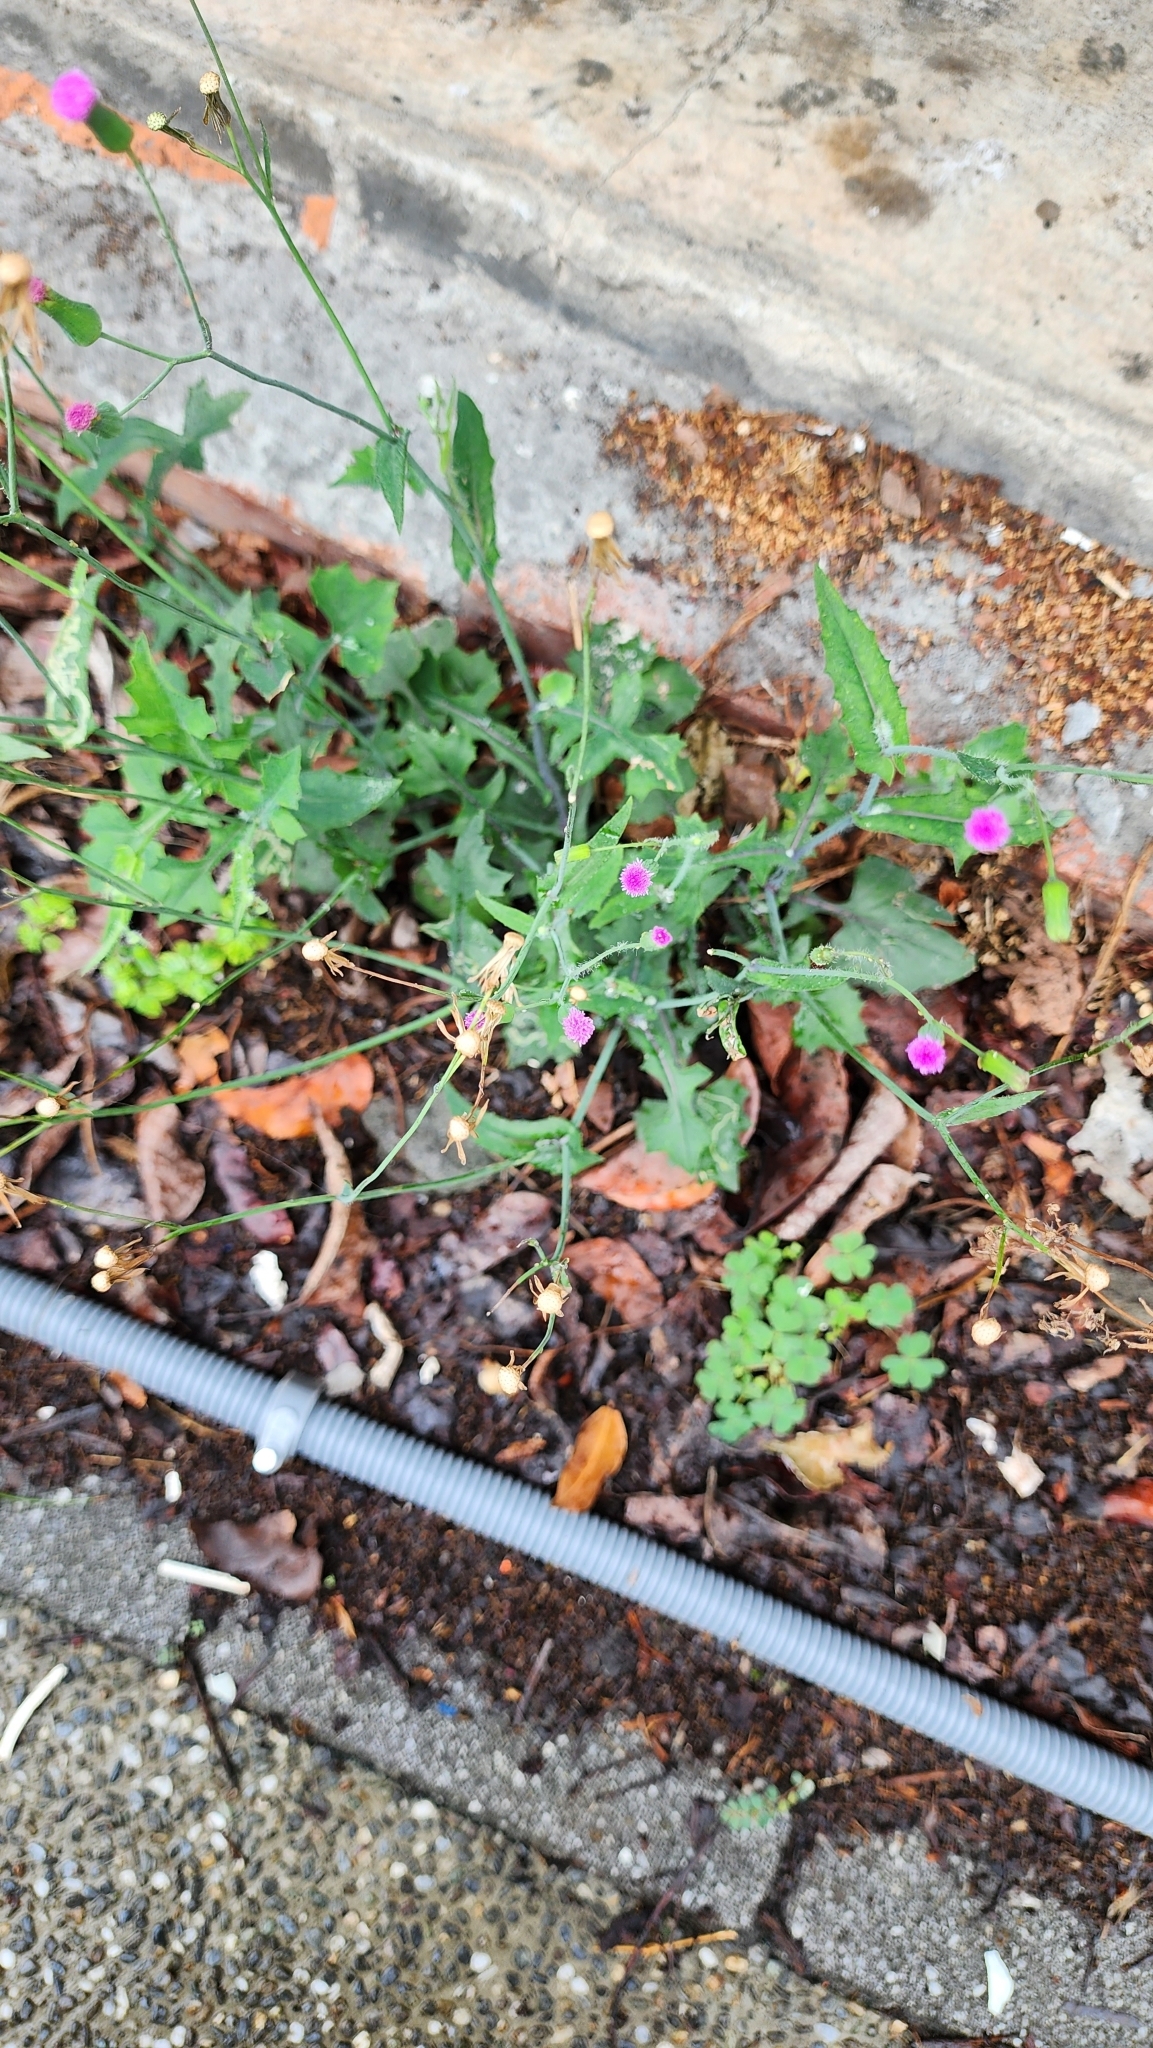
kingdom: Plantae
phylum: Tracheophyta
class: Magnoliopsida
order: Asterales
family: Asteraceae
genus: Emilia
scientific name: Emilia javanica
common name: Tassel-flower
